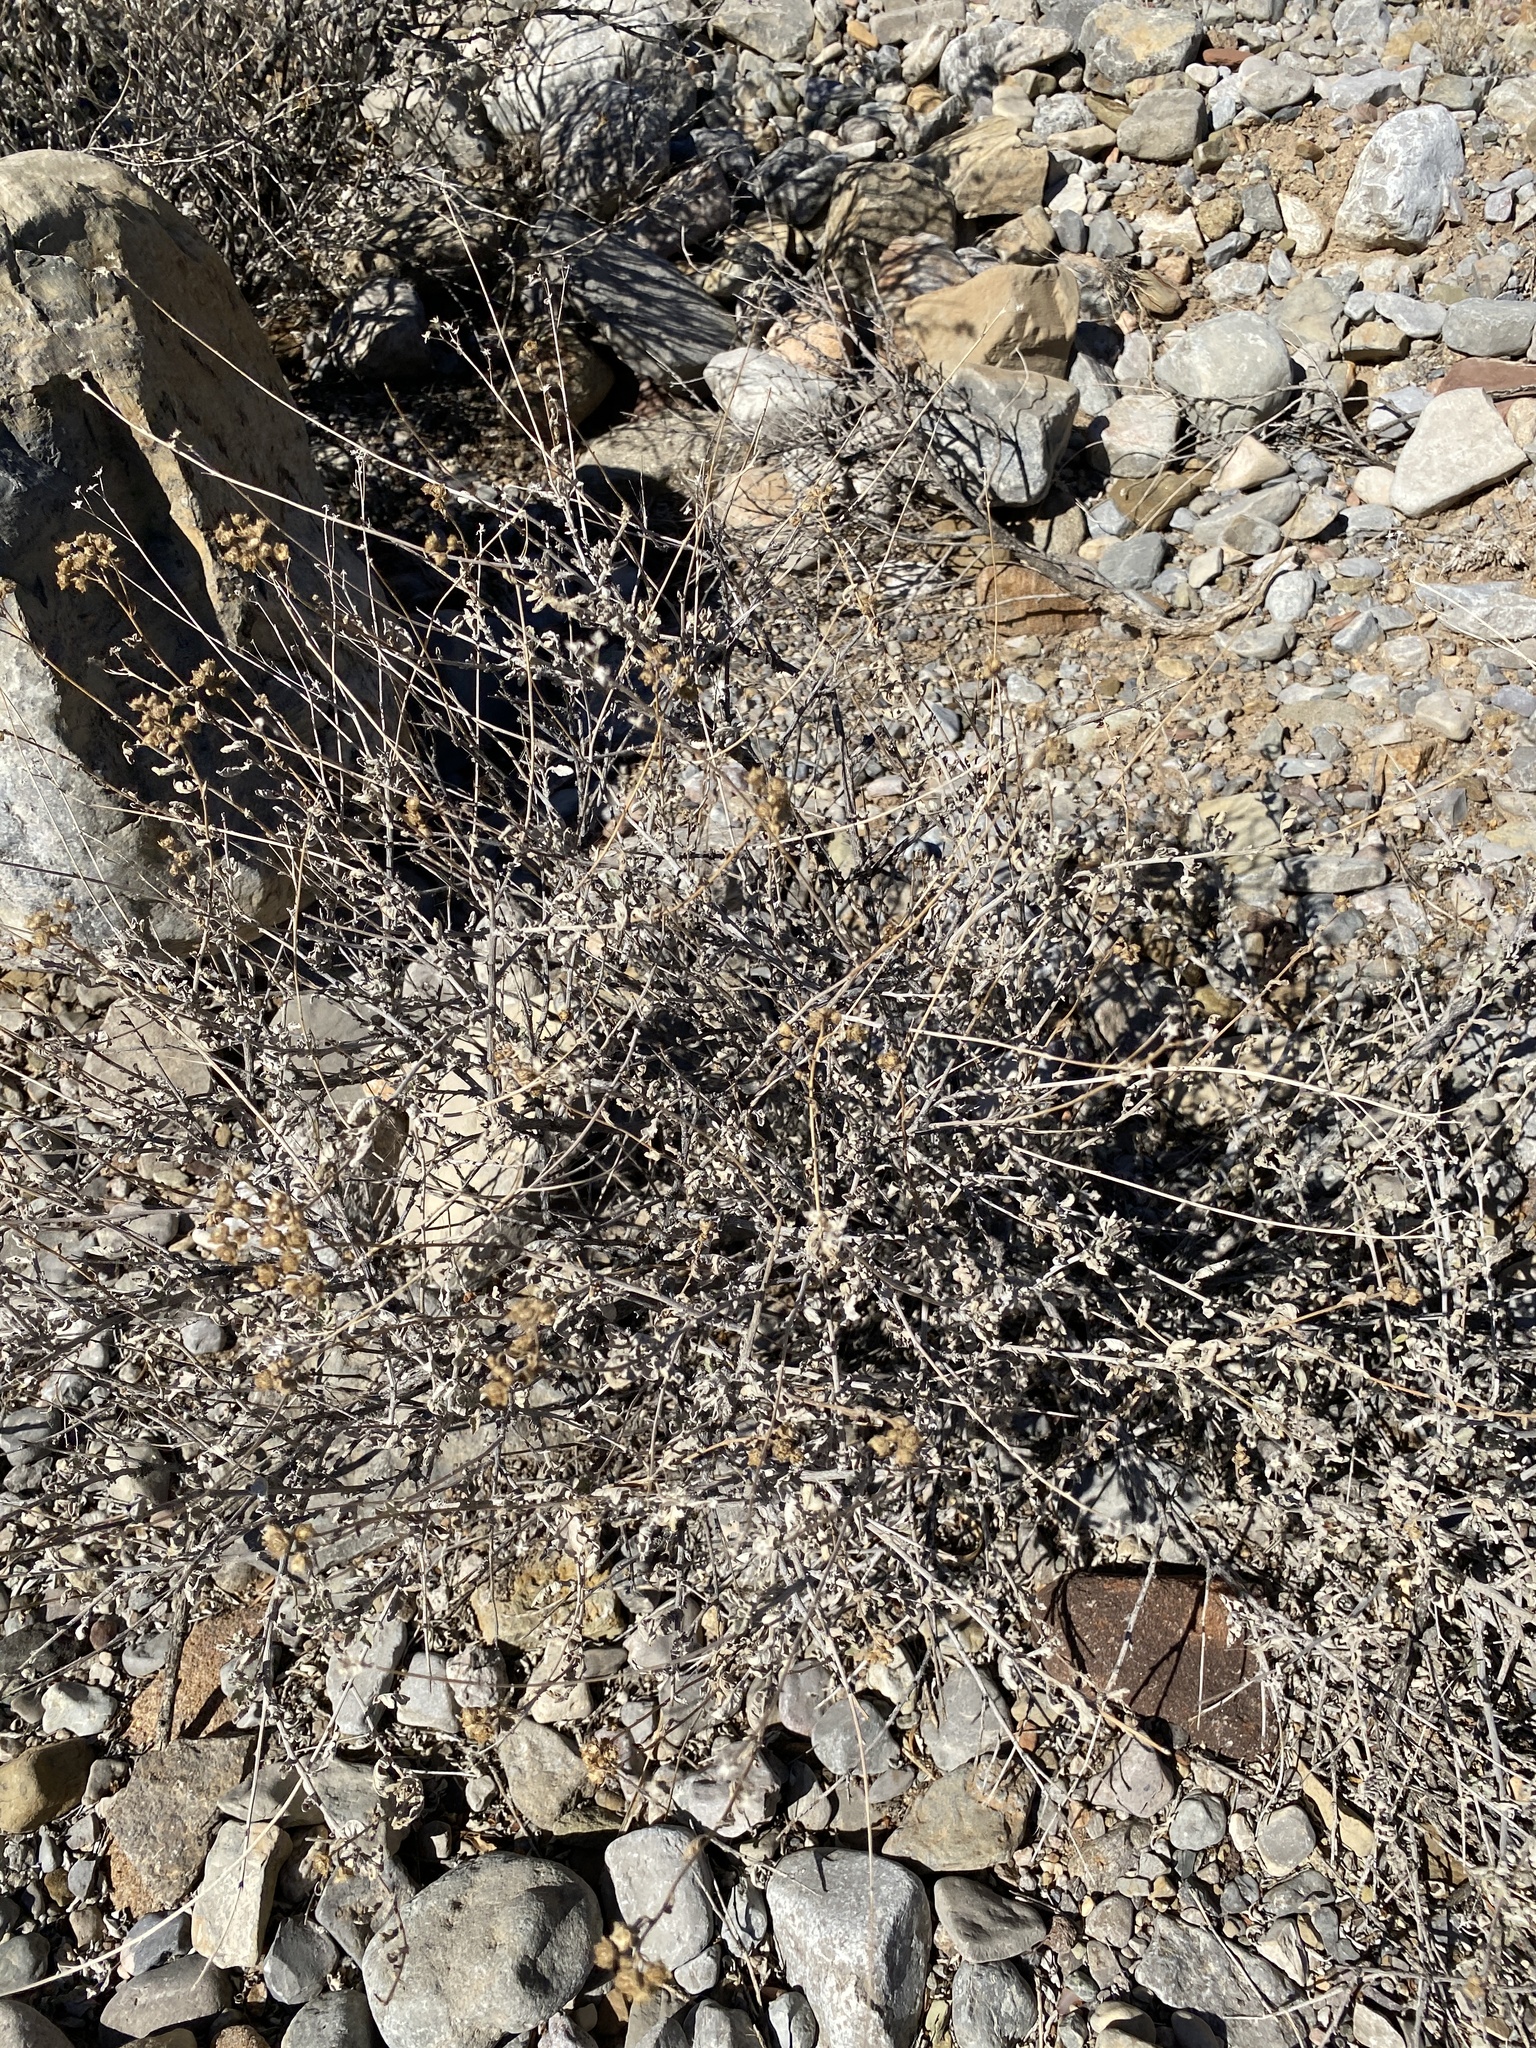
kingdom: Plantae
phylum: Tracheophyta
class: Magnoliopsida
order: Asterales
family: Asteraceae
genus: Parthenium
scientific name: Parthenium incanum
